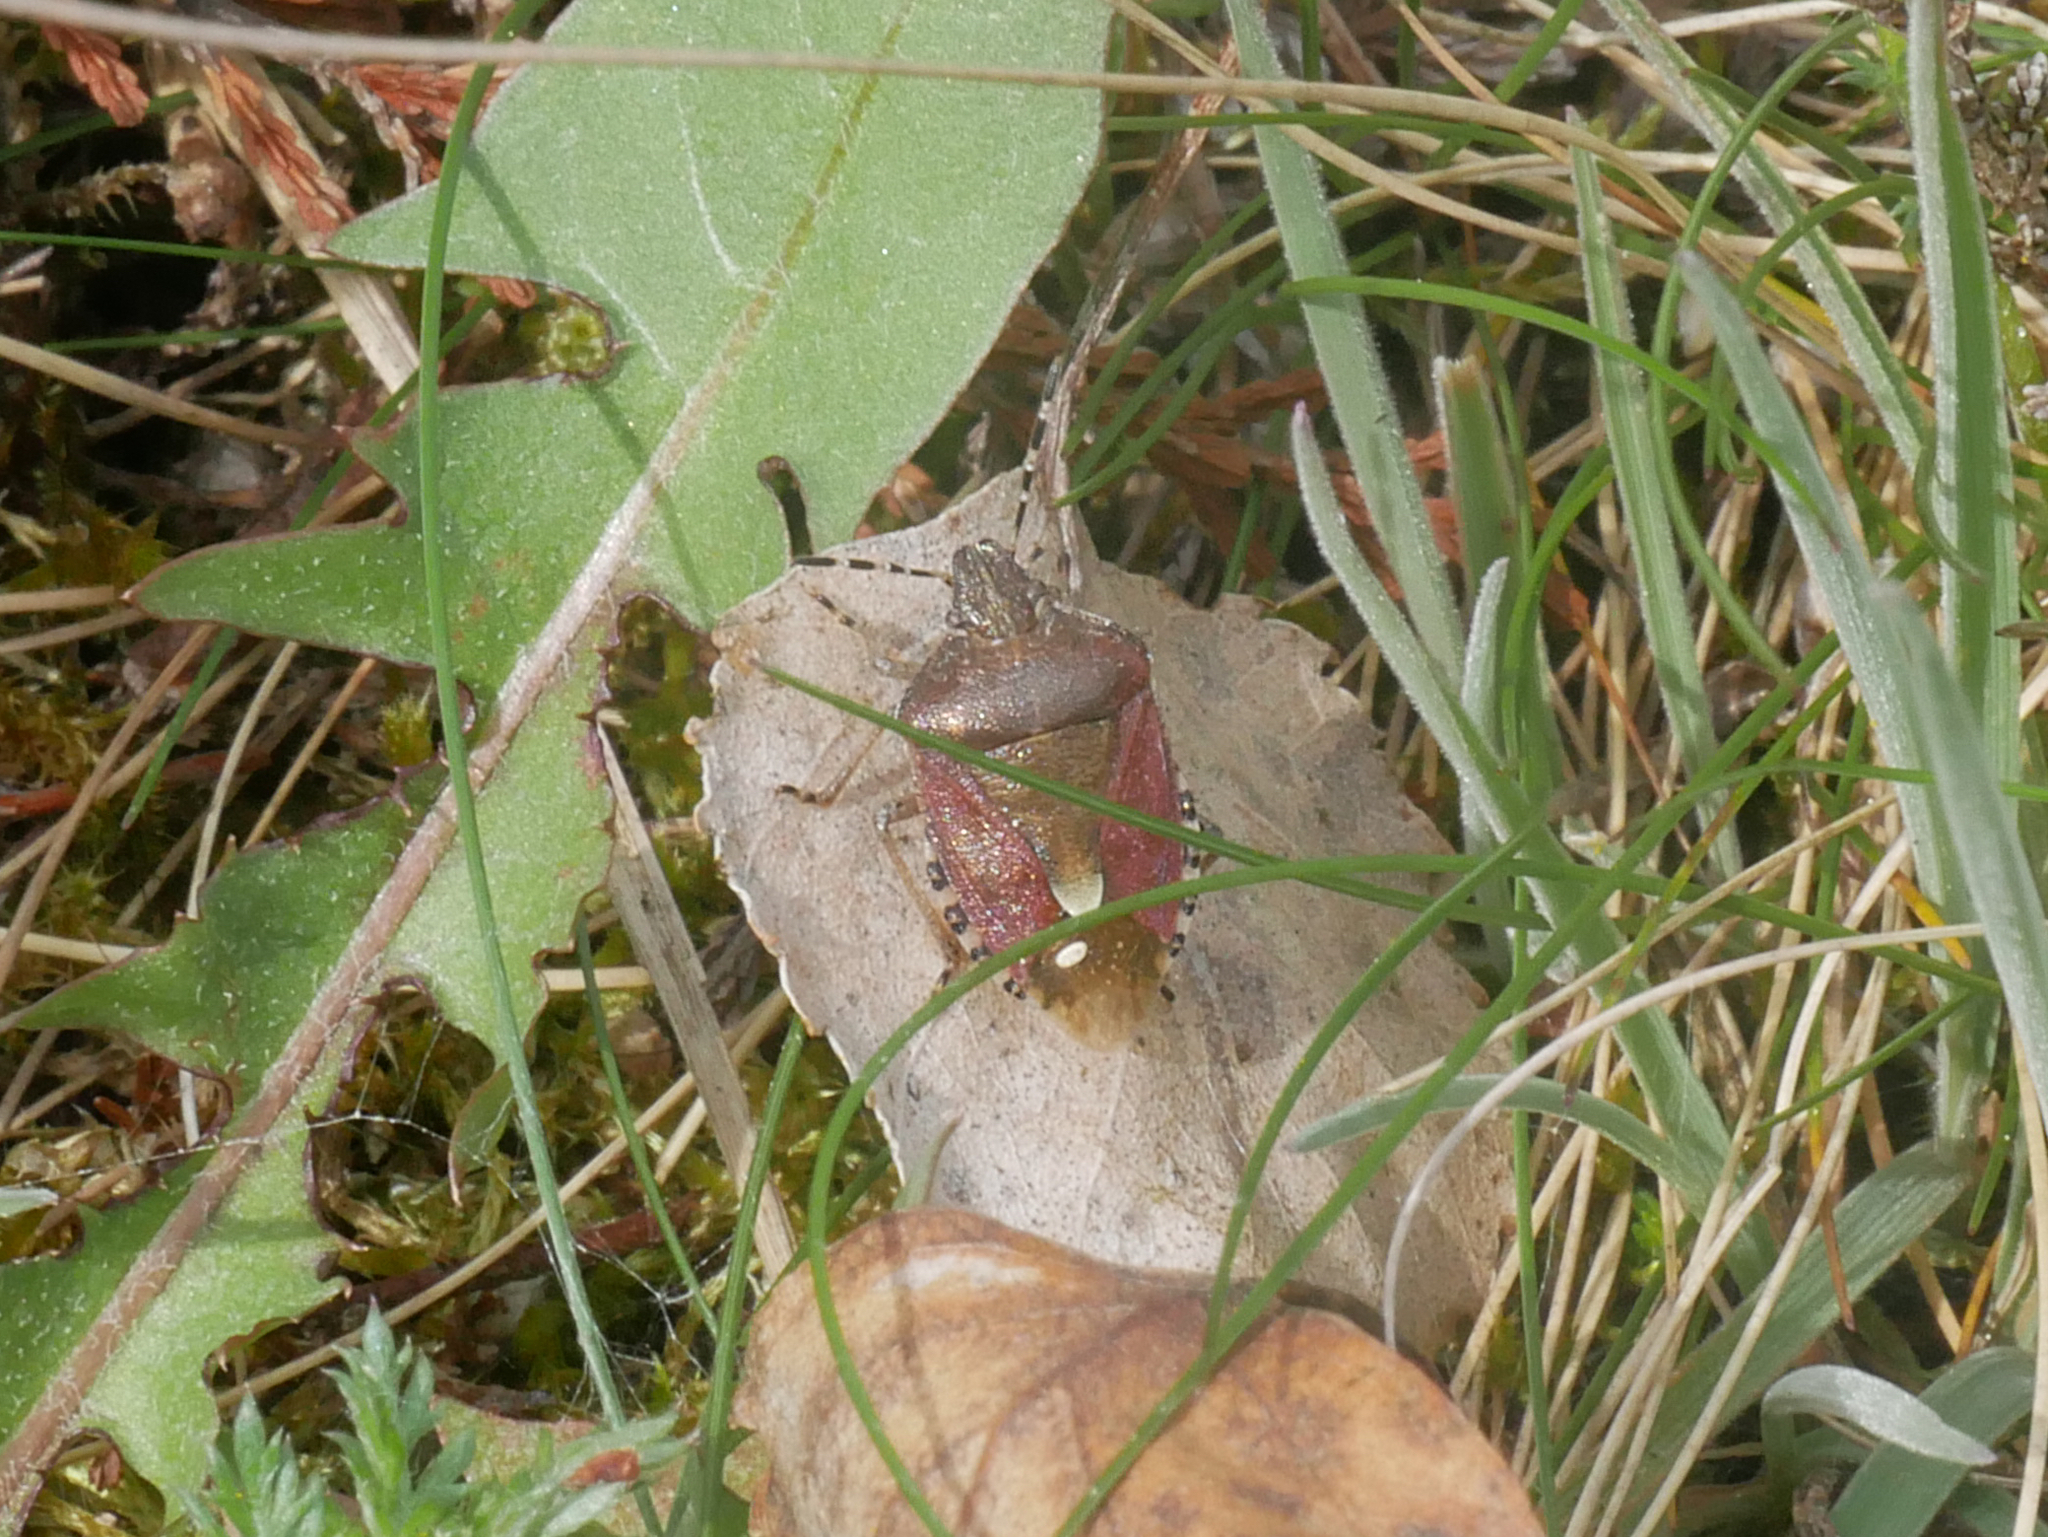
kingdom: Animalia
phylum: Arthropoda
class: Insecta
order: Hemiptera
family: Pentatomidae
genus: Dolycoris
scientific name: Dolycoris baccarum
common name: Sloe bug
